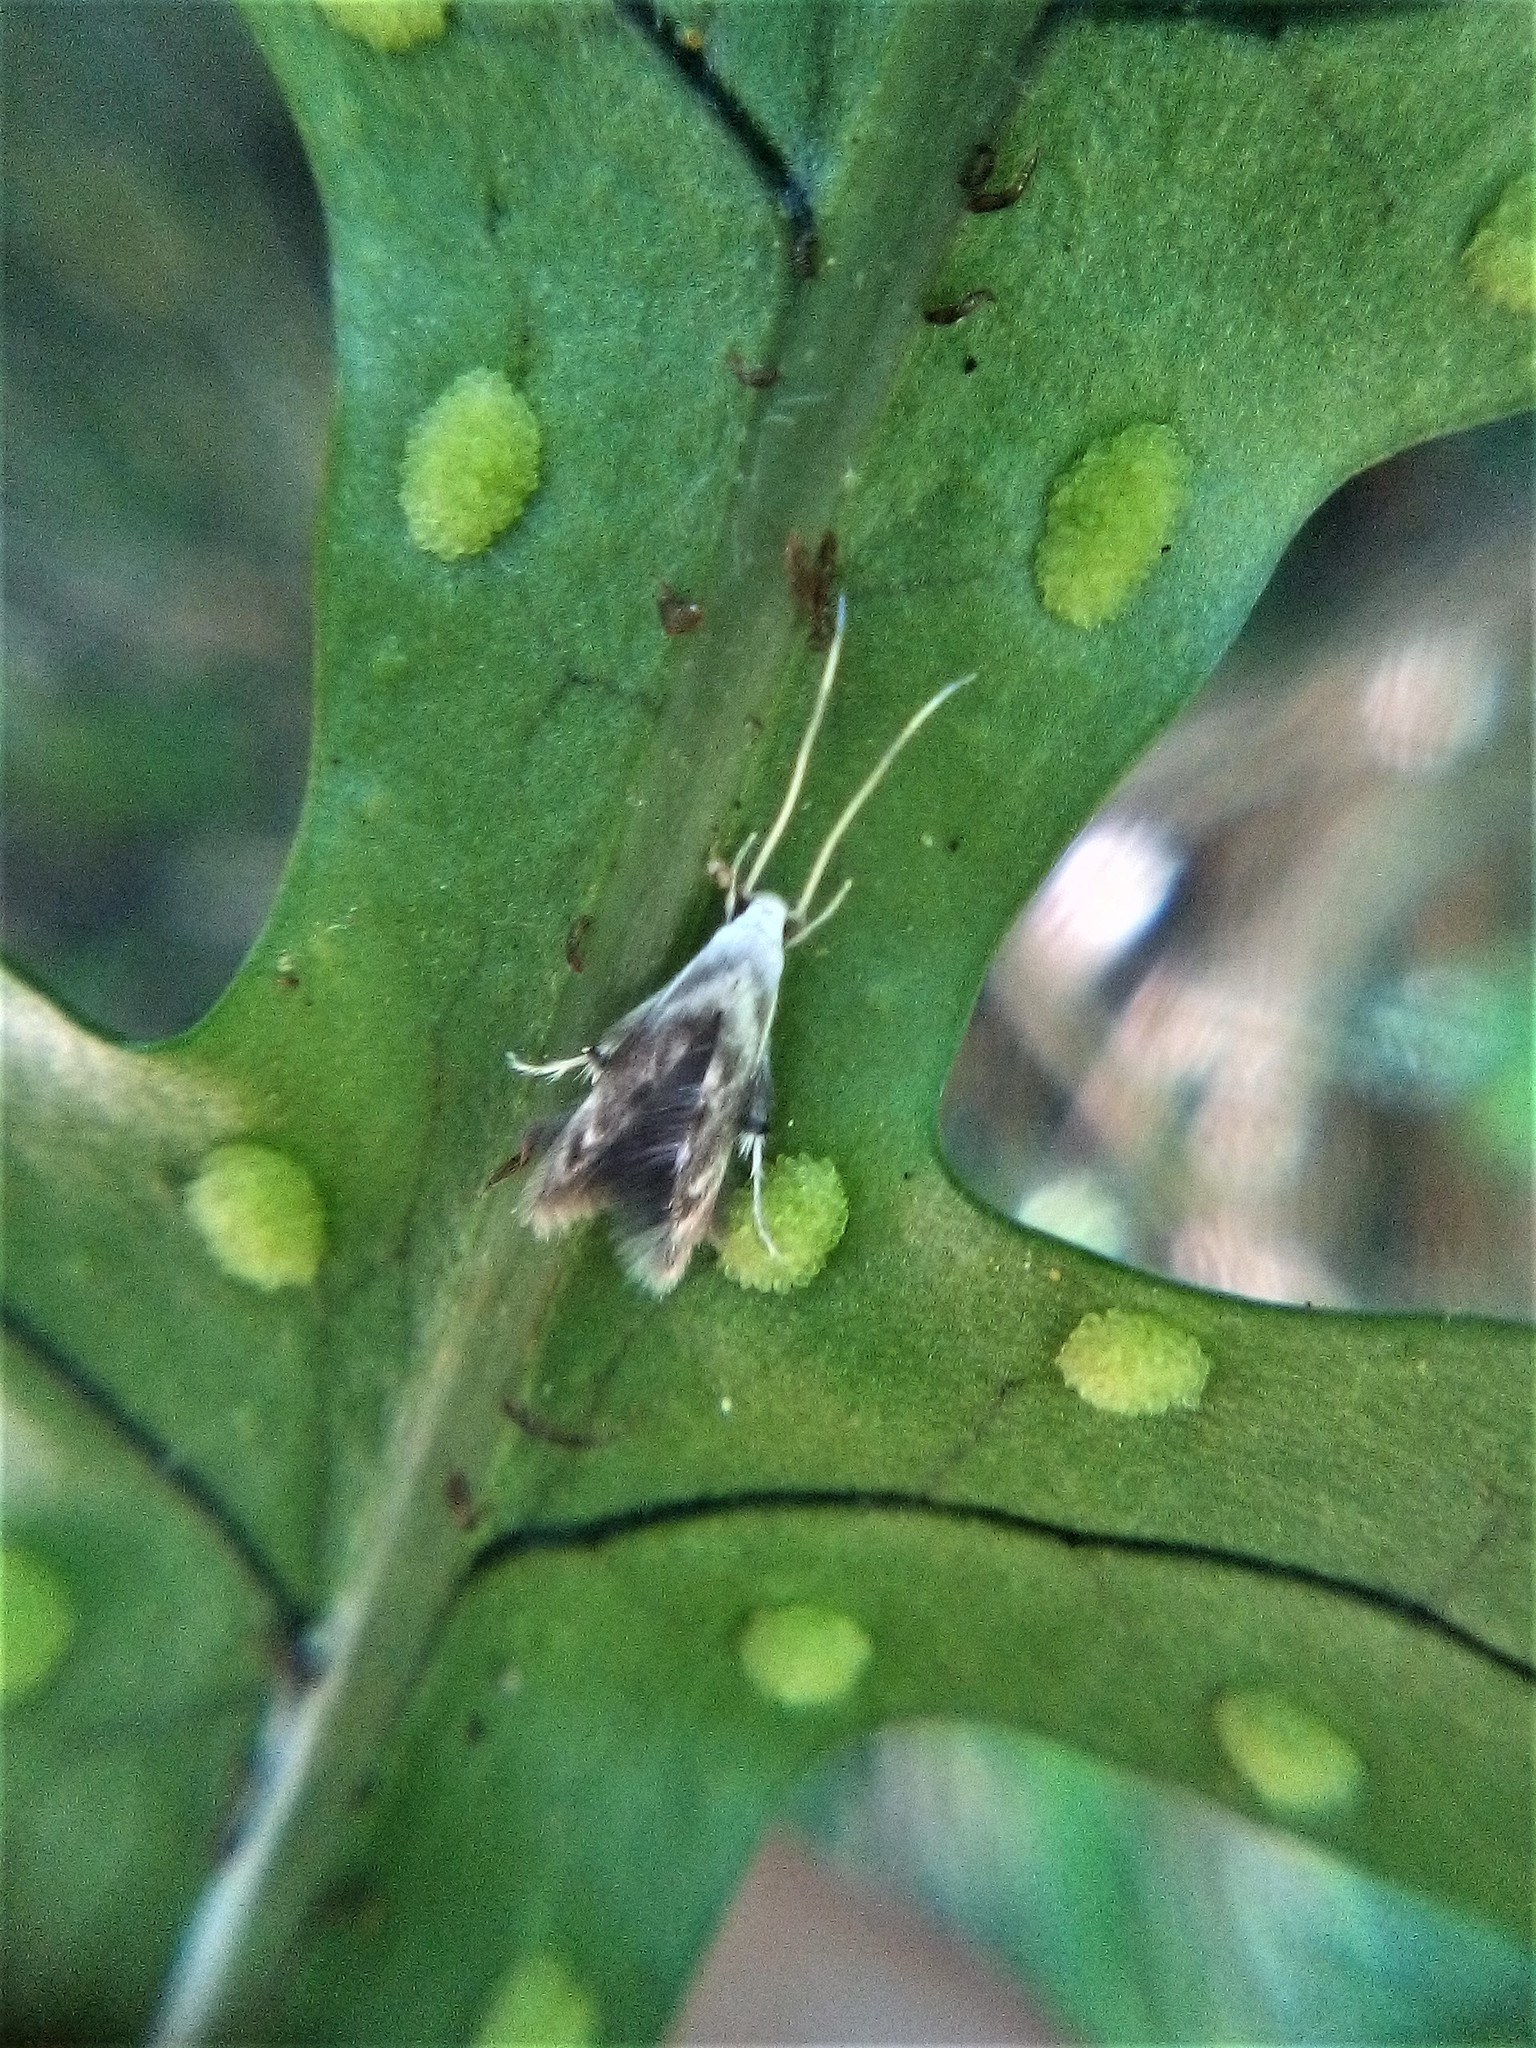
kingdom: Animalia
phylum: Arthropoda
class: Insecta
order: Lepidoptera
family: Stathmopodidae
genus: Thylacosceles
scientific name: Thylacosceles radians
